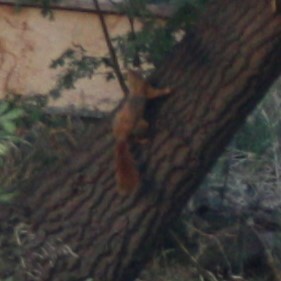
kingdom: Animalia
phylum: Chordata
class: Mammalia
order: Rodentia
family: Sciuridae
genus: Sciurus
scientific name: Sciurus vulgaris
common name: Eurasian red squirrel
